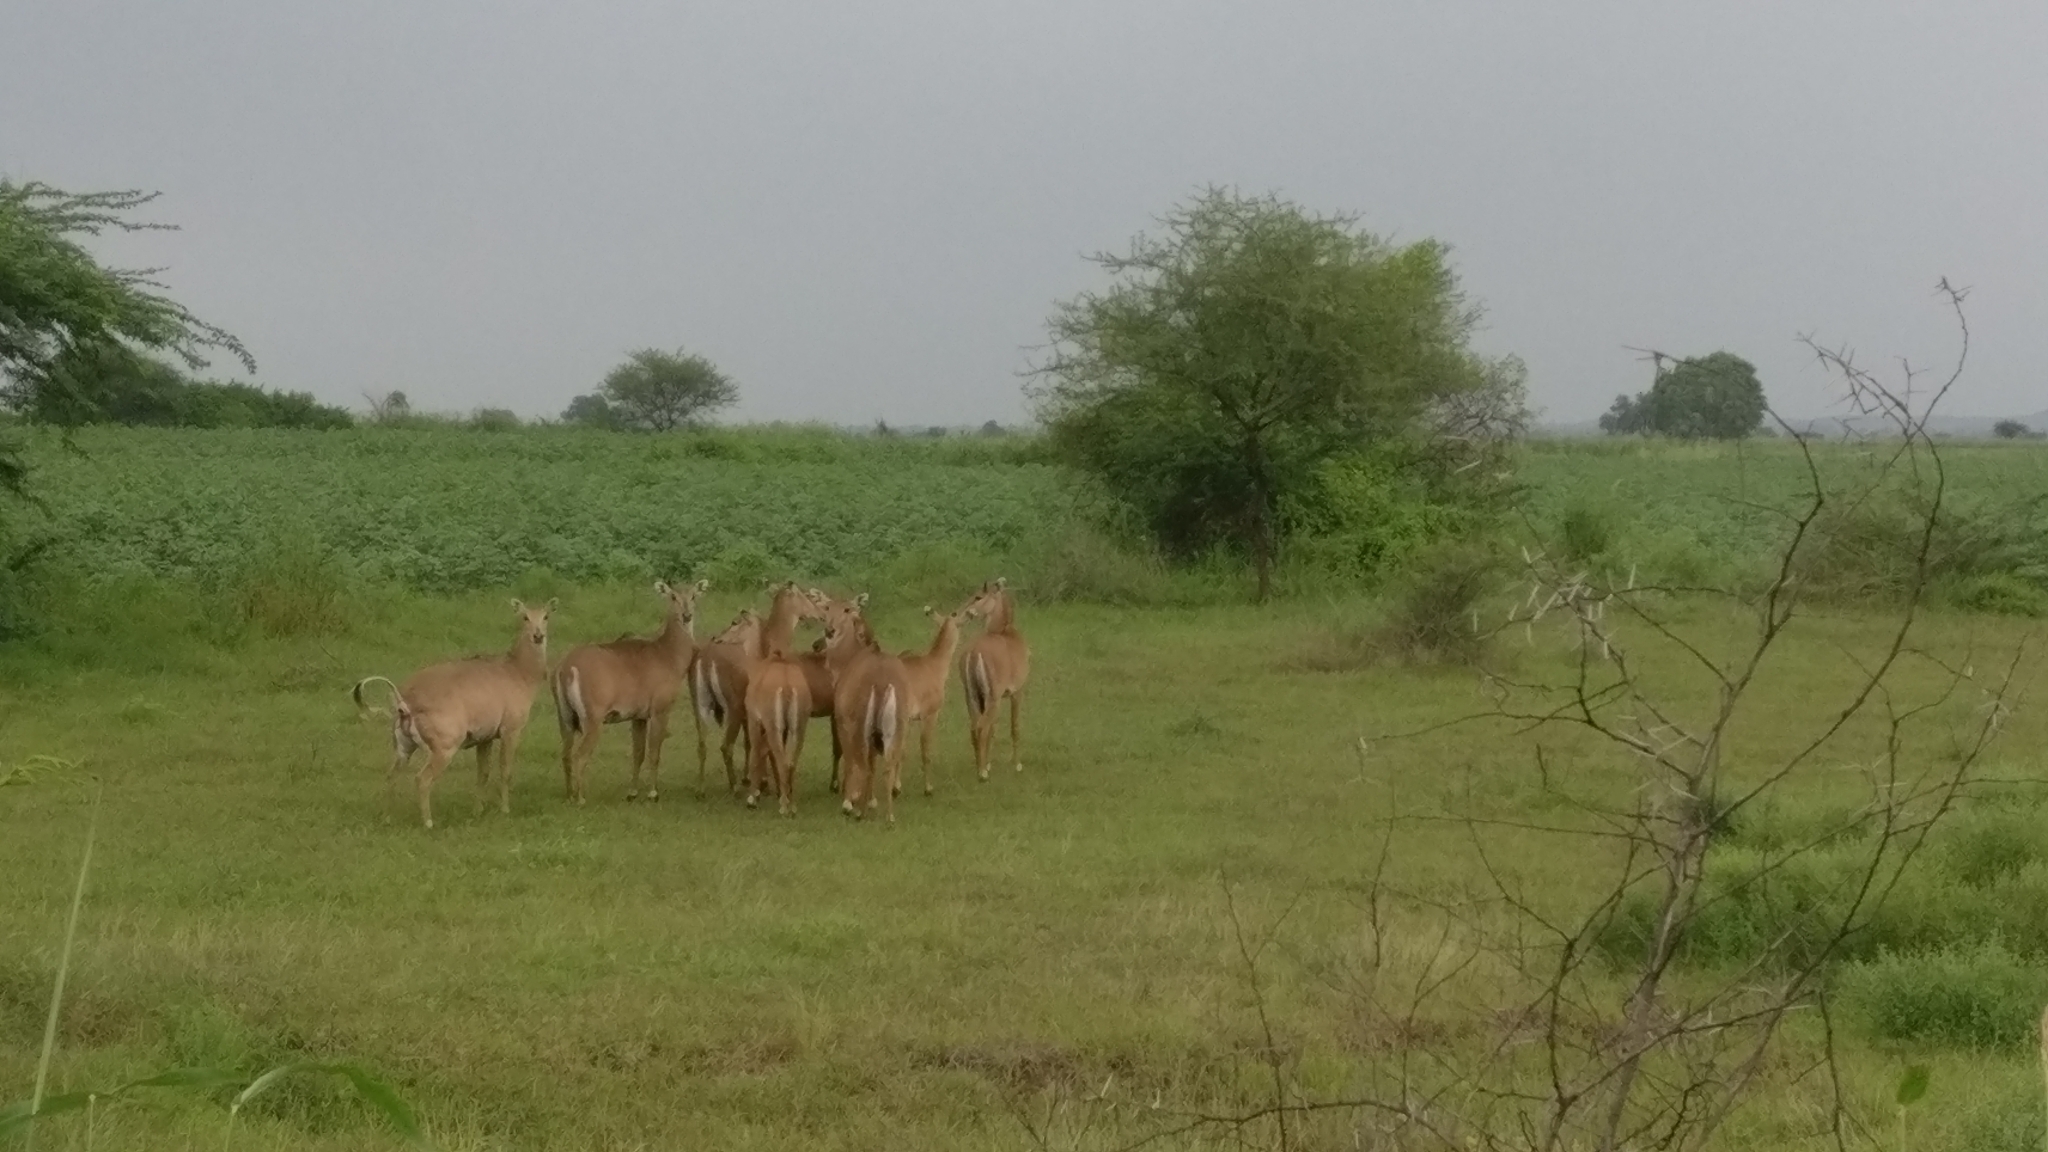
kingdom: Animalia
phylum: Chordata
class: Mammalia
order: Artiodactyla
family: Bovidae
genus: Boselaphus
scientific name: Boselaphus tragocamelus
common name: Nilgai
